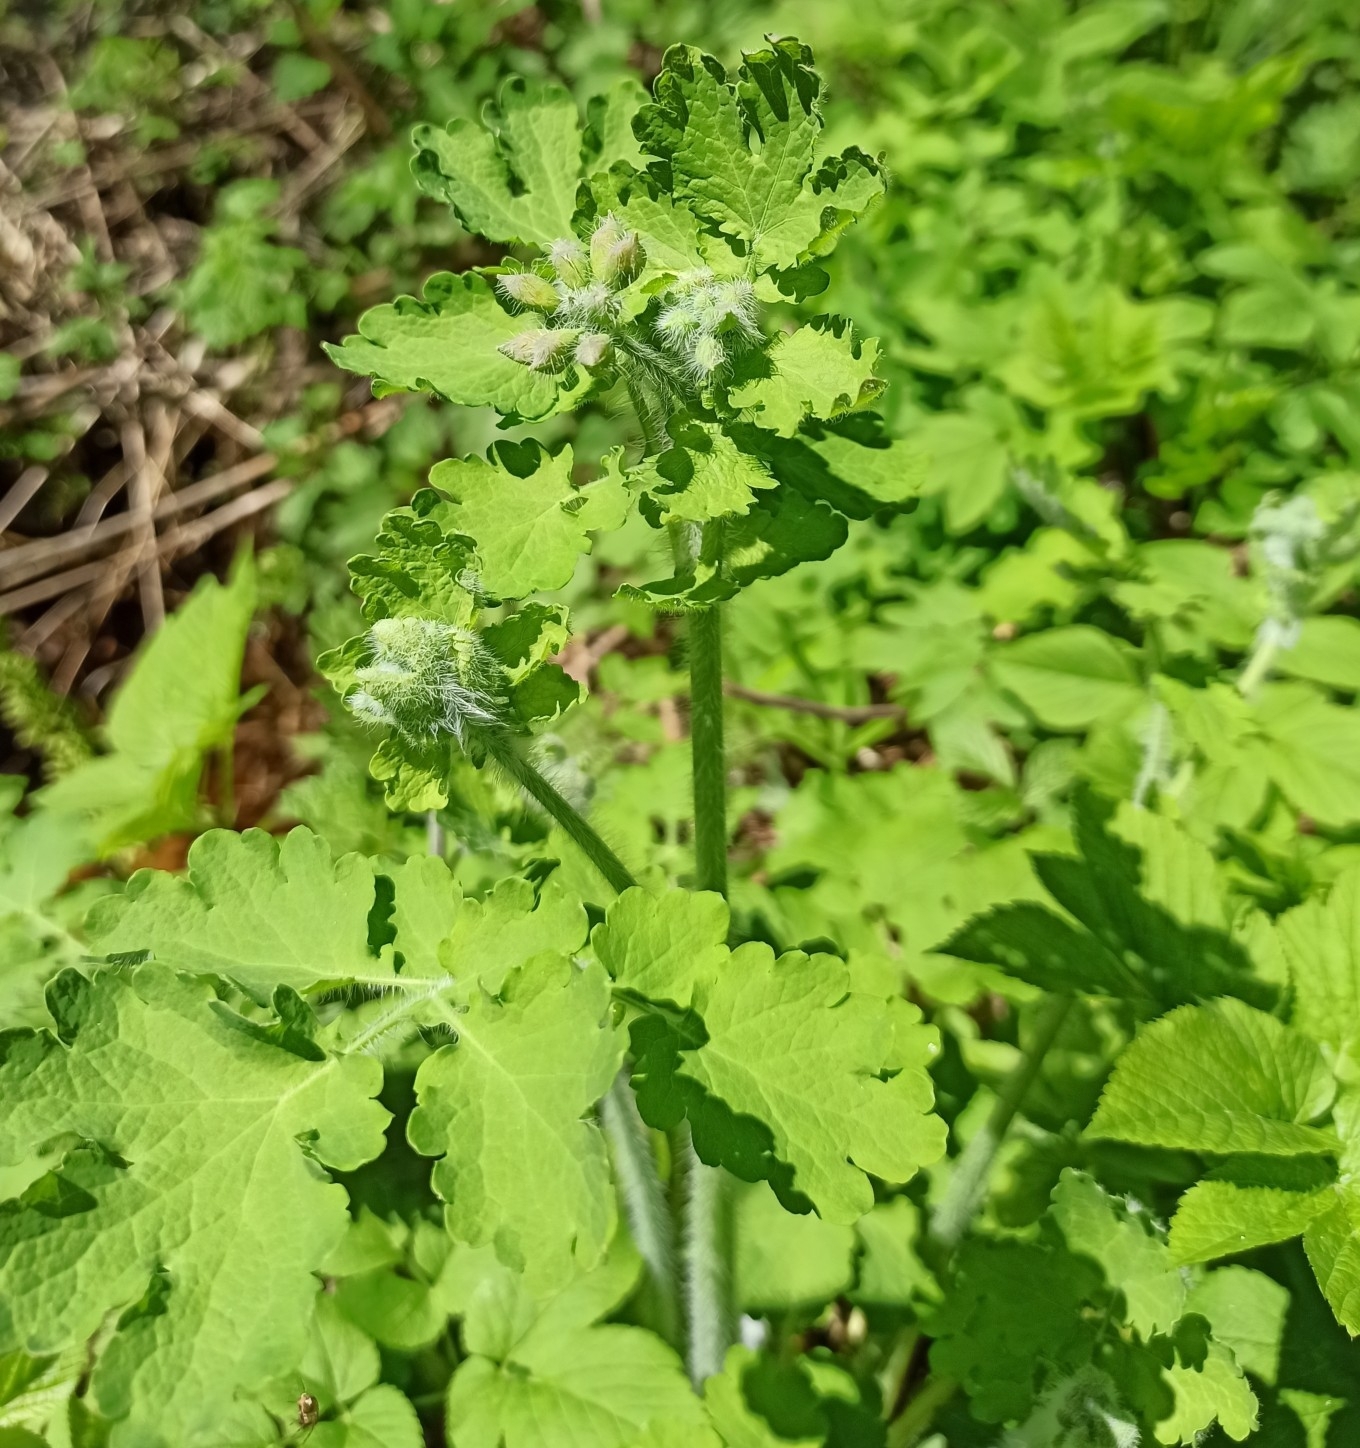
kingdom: Plantae
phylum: Tracheophyta
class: Magnoliopsida
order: Ranunculales
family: Papaveraceae
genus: Chelidonium
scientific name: Chelidonium majus
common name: Greater celandine
